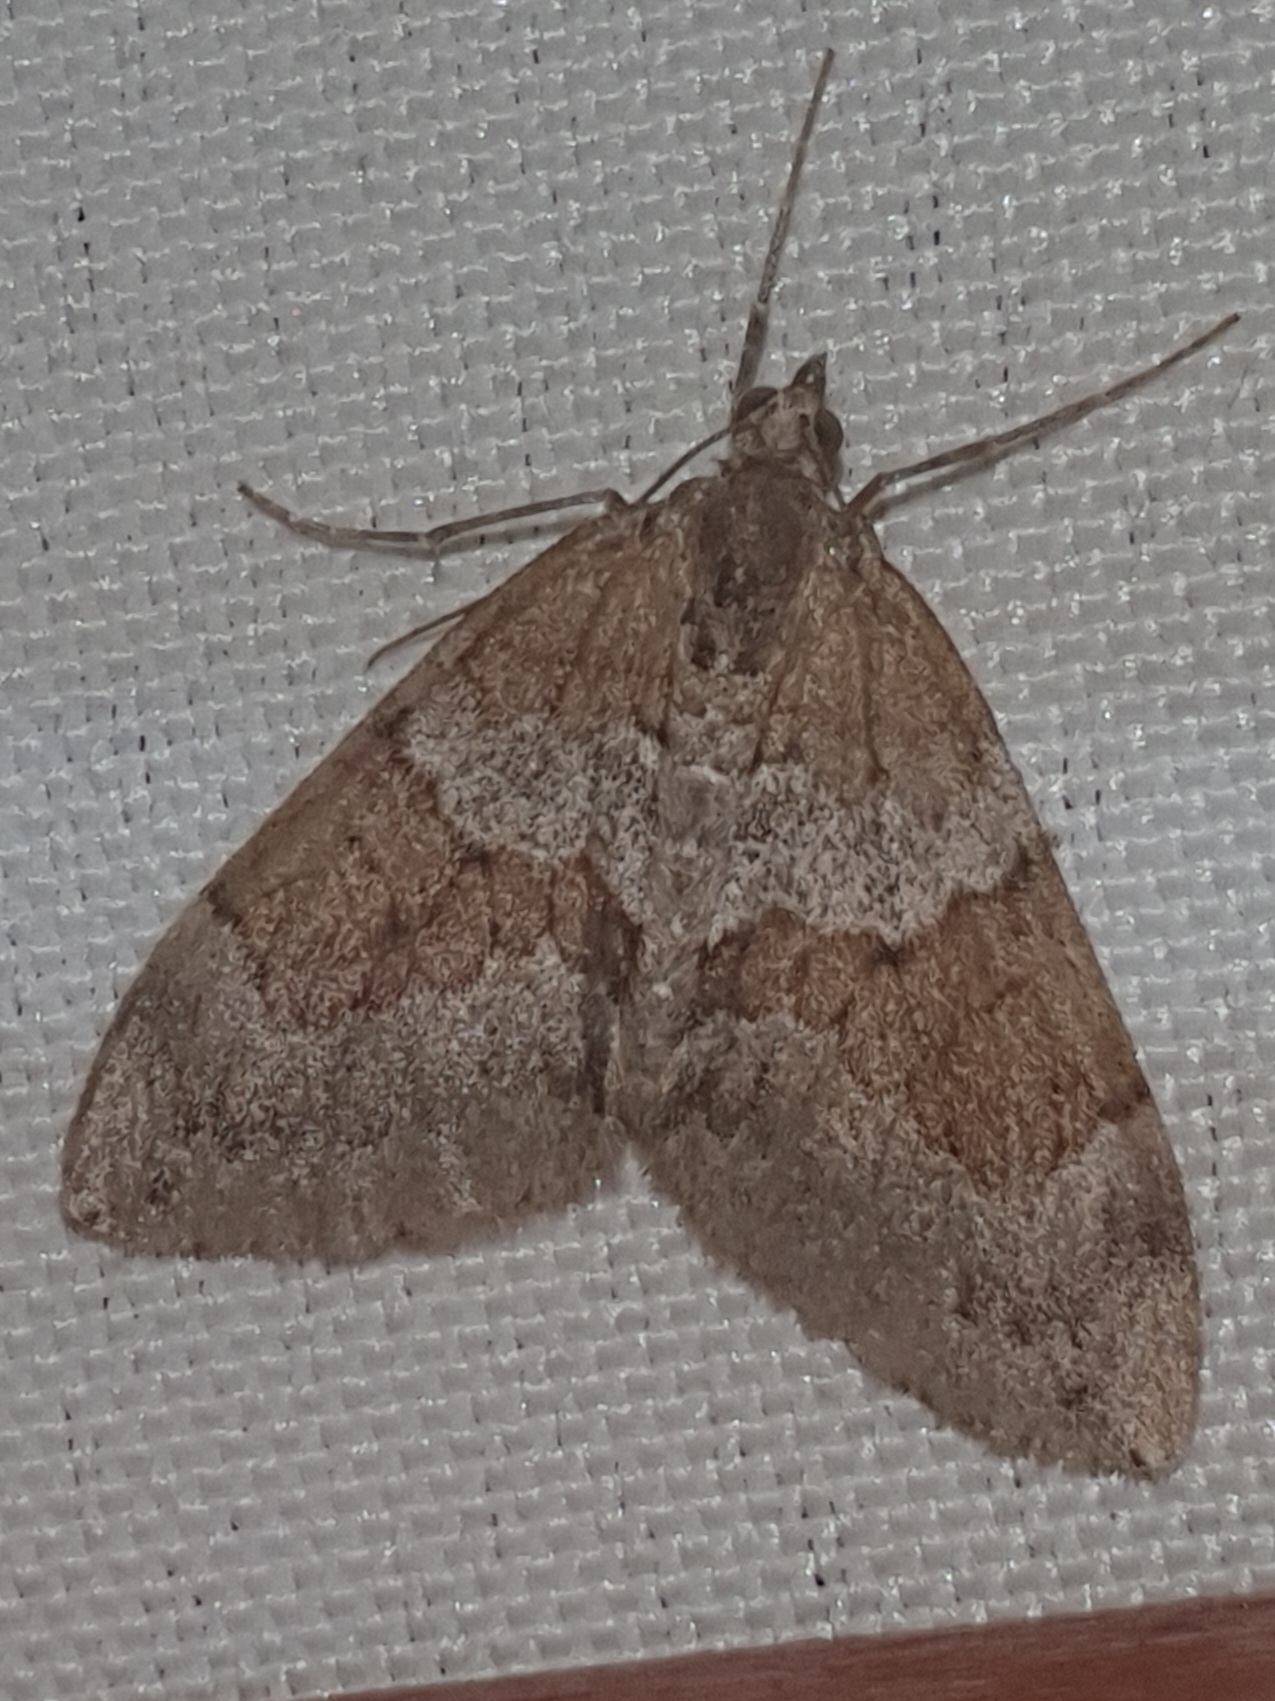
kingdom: Animalia
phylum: Arthropoda
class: Insecta
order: Lepidoptera
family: Geometridae
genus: Thera
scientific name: Thera obeliscata
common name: Grey pine carpet
